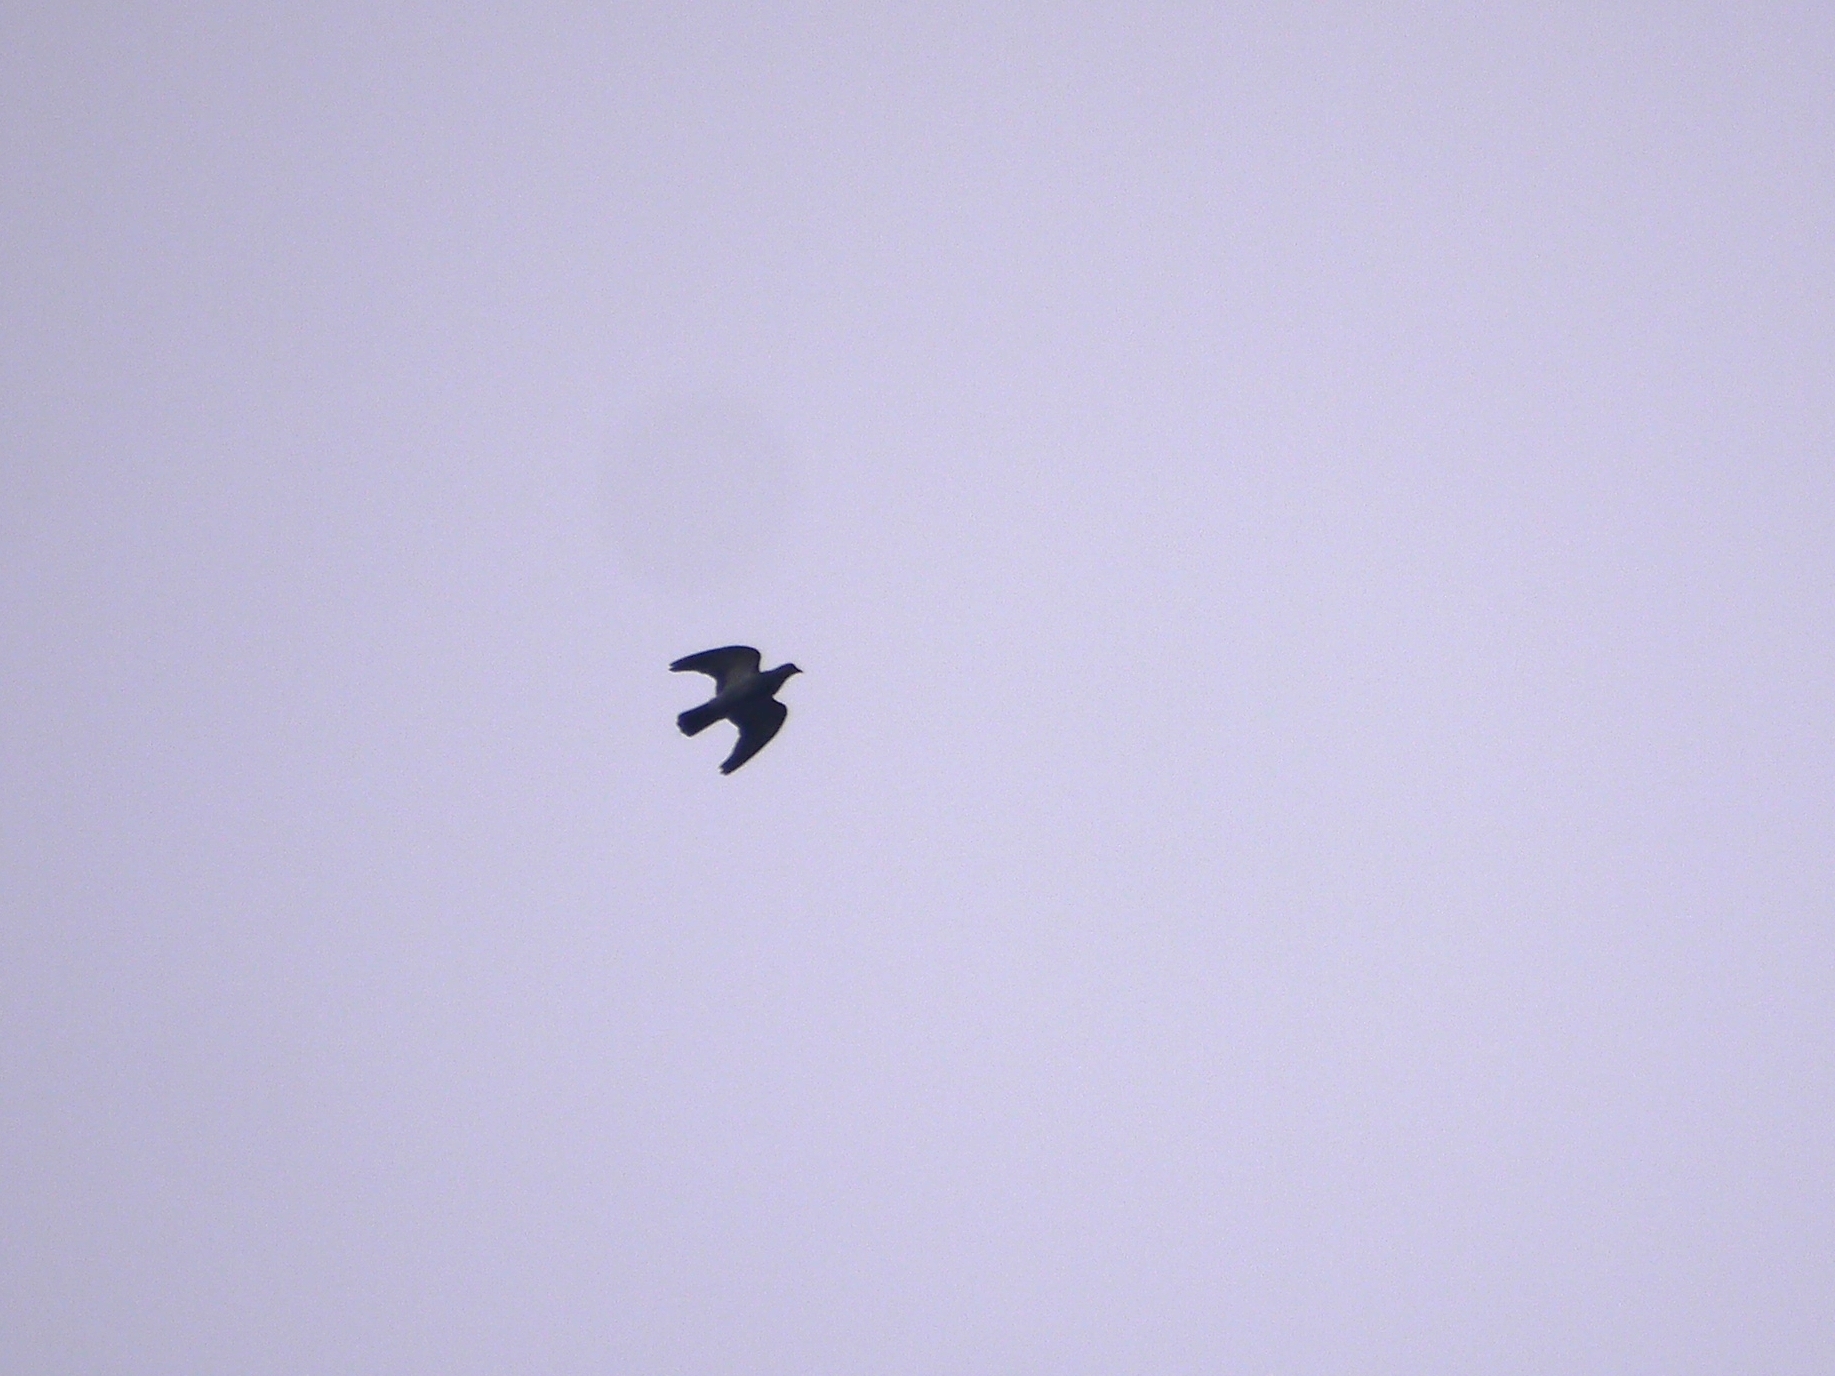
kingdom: Animalia
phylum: Chordata
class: Aves
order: Columbiformes
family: Columbidae
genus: Columba
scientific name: Columba palumbus
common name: Common wood pigeon
